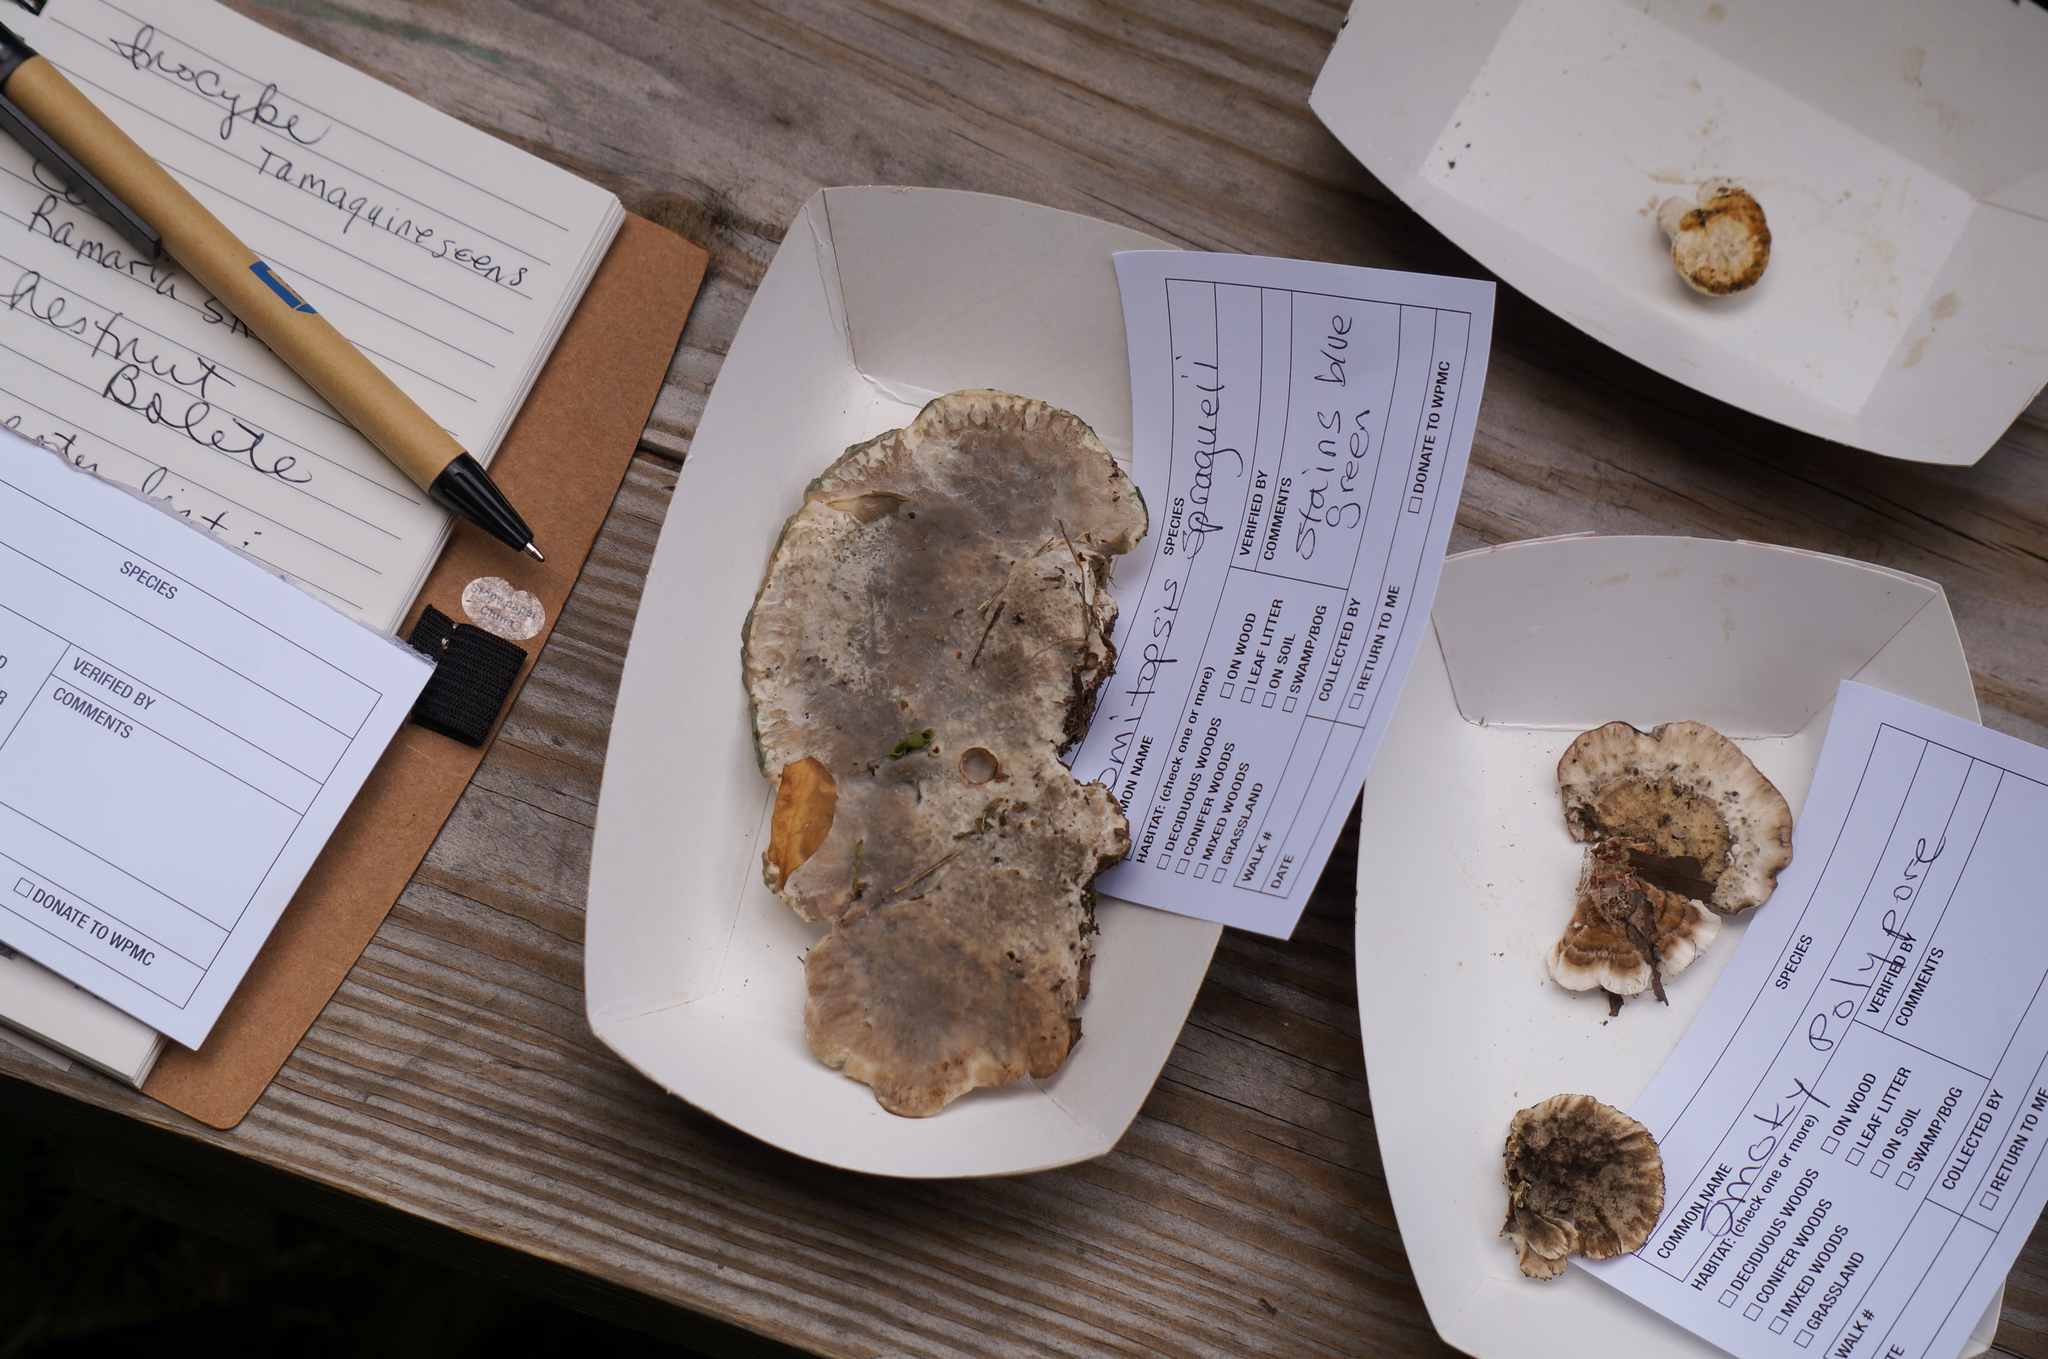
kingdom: Fungi
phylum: Basidiomycota
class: Agaricomycetes
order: Polyporales
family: Fomitopsidaceae
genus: Niveoporofomes
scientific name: Niveoporofomes spraguei
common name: Green cheese polypore
